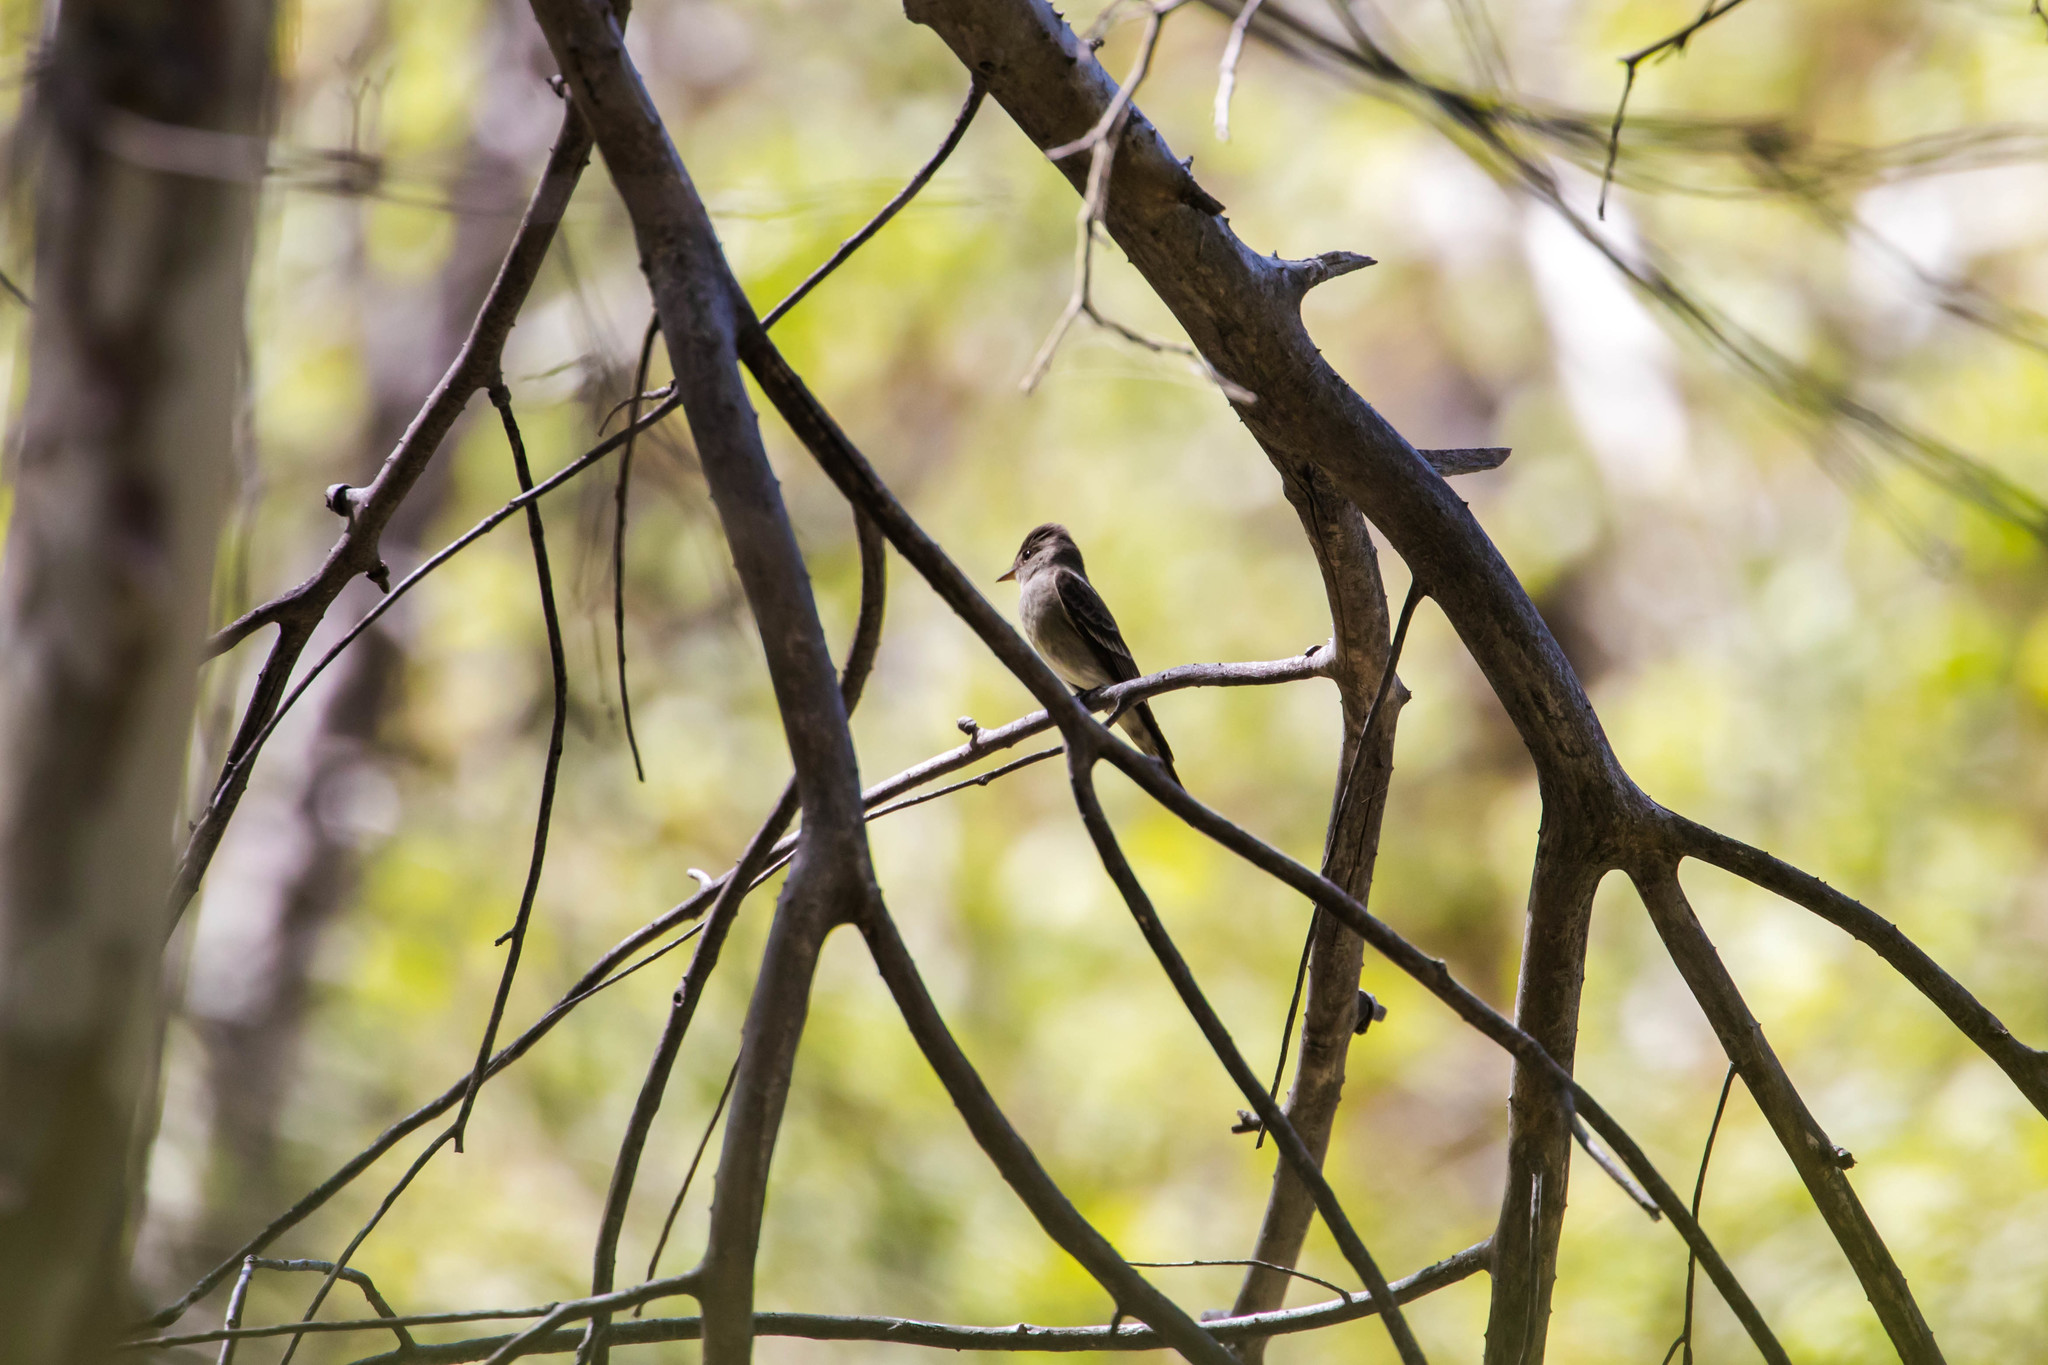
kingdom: Animalia
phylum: Chordata
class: Aves
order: Passeriformes
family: Tyrannidae
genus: Contopus
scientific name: Contopus sordidulus
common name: Western wood-pewee
